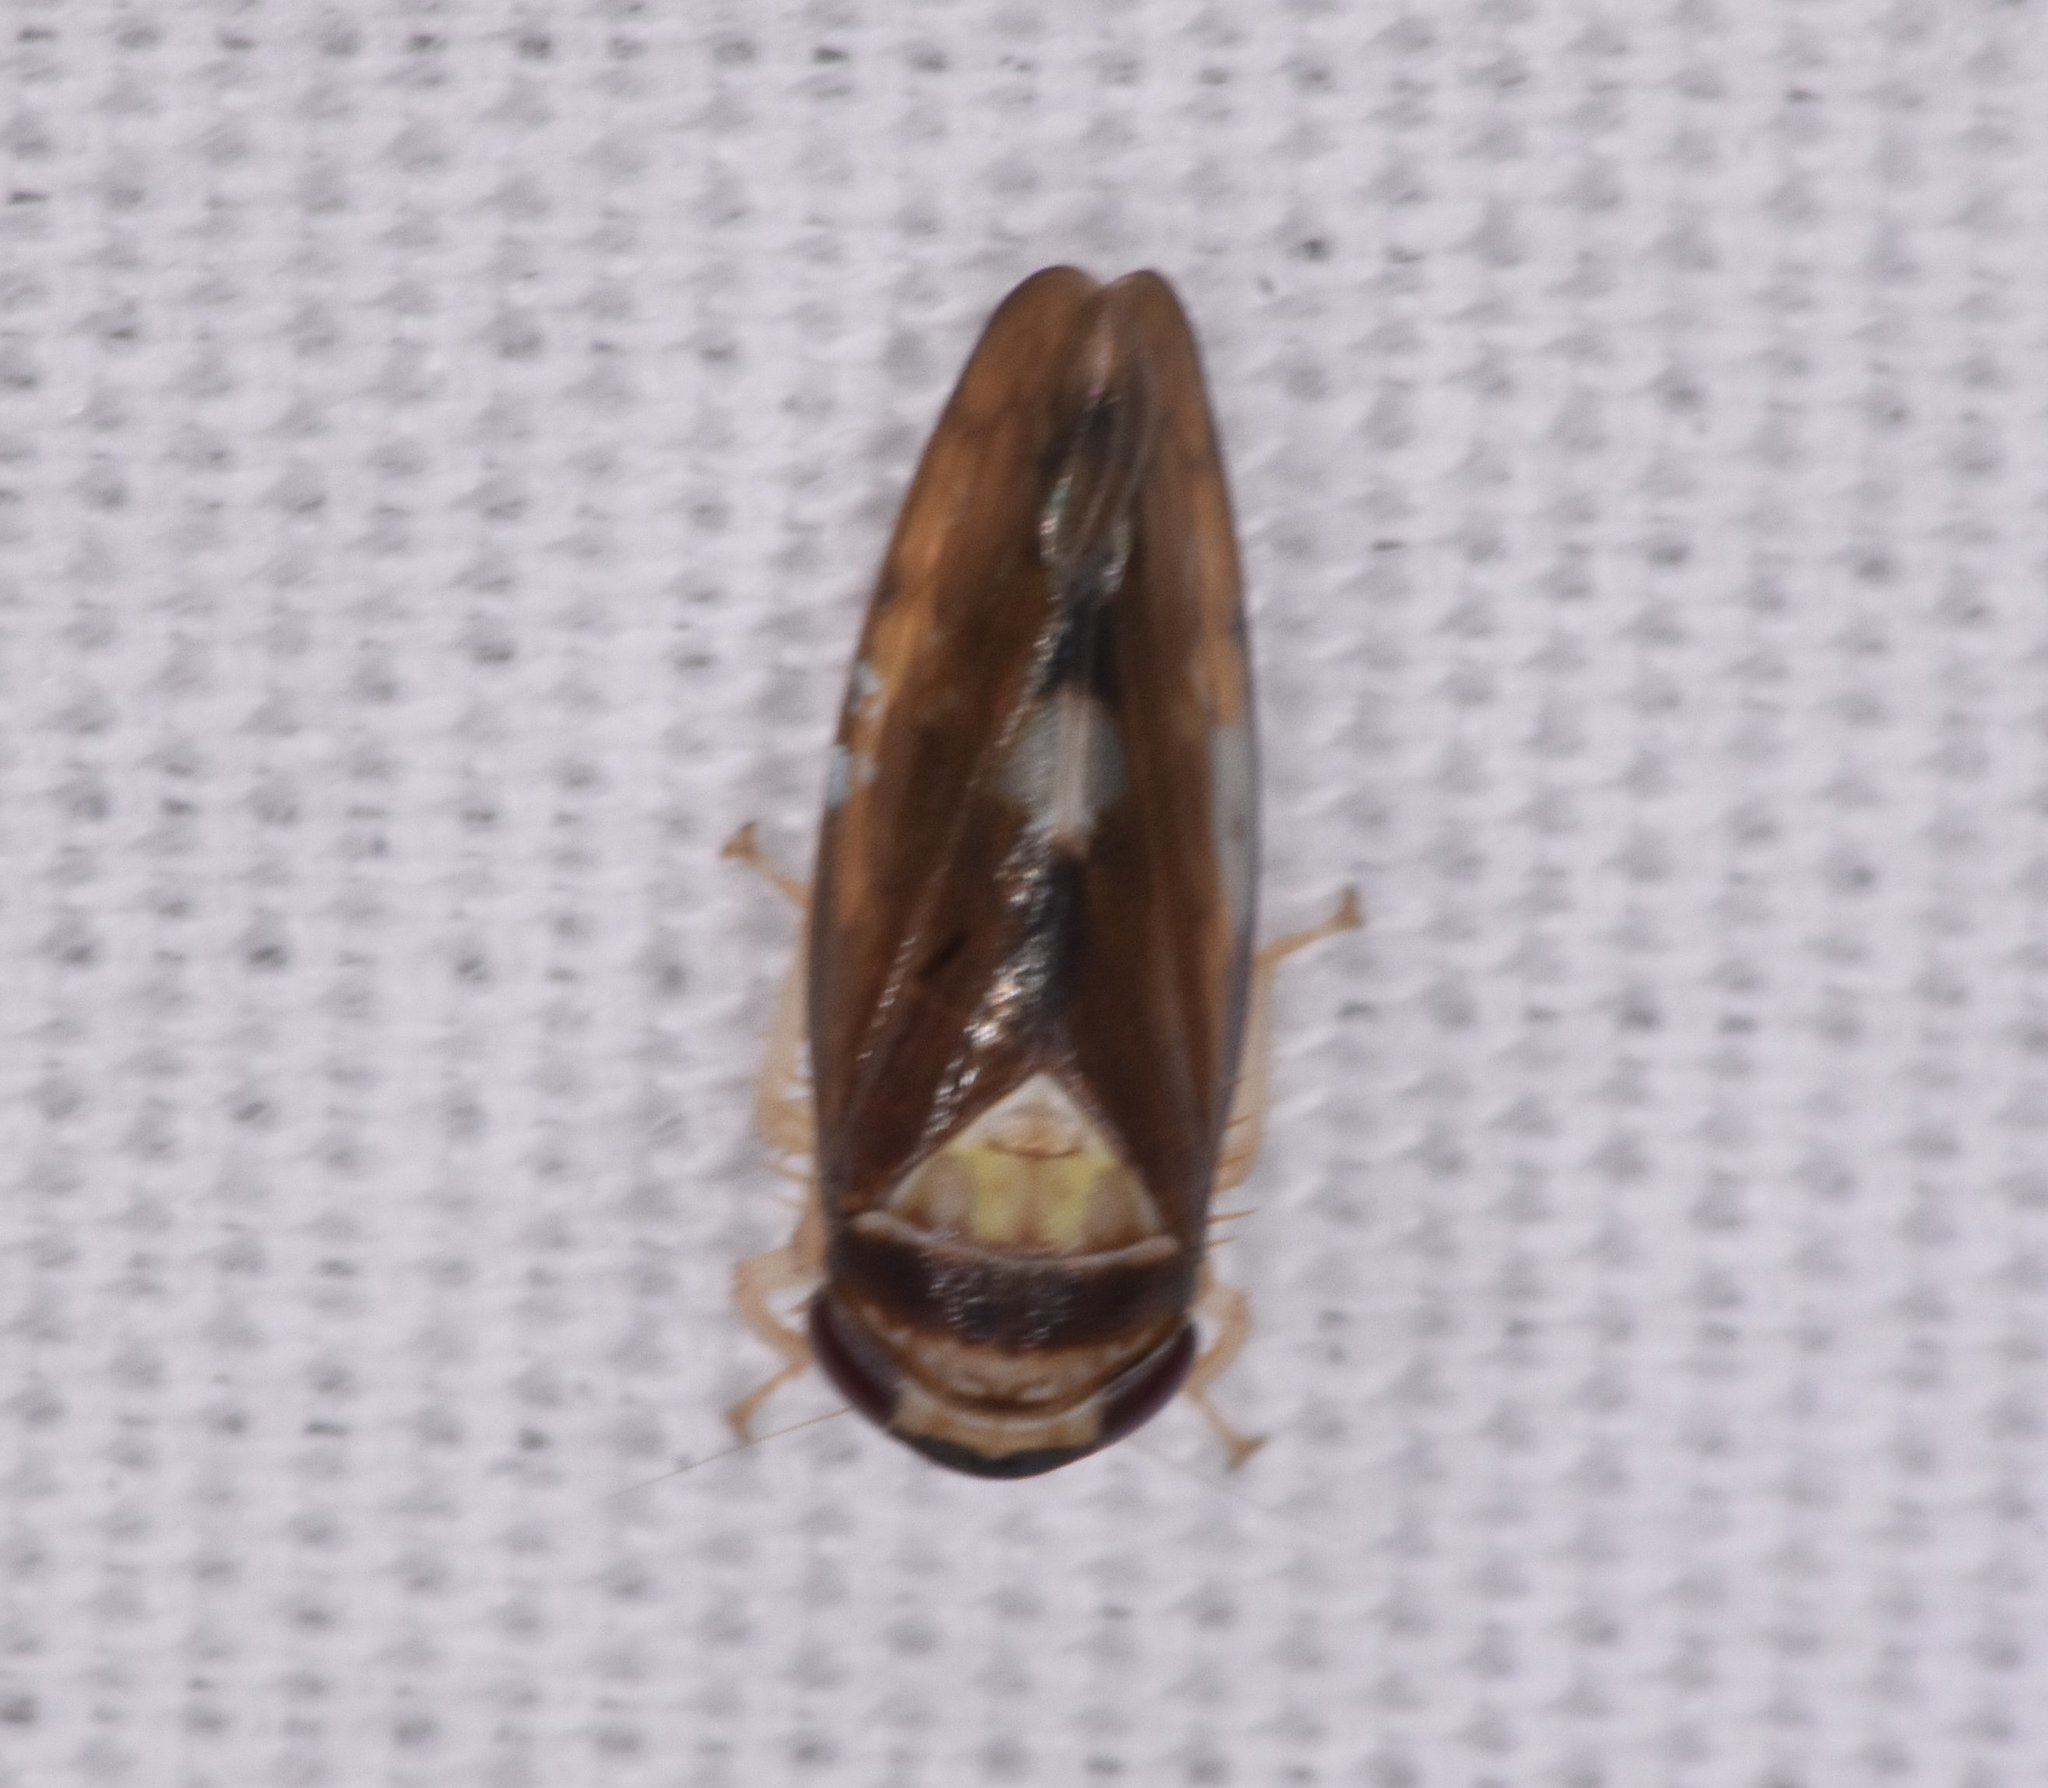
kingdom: Animalia
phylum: Arthropoda
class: Insecta
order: Hemiptera
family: Cicadellidae
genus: Eutettix
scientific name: Eutettix pictus
